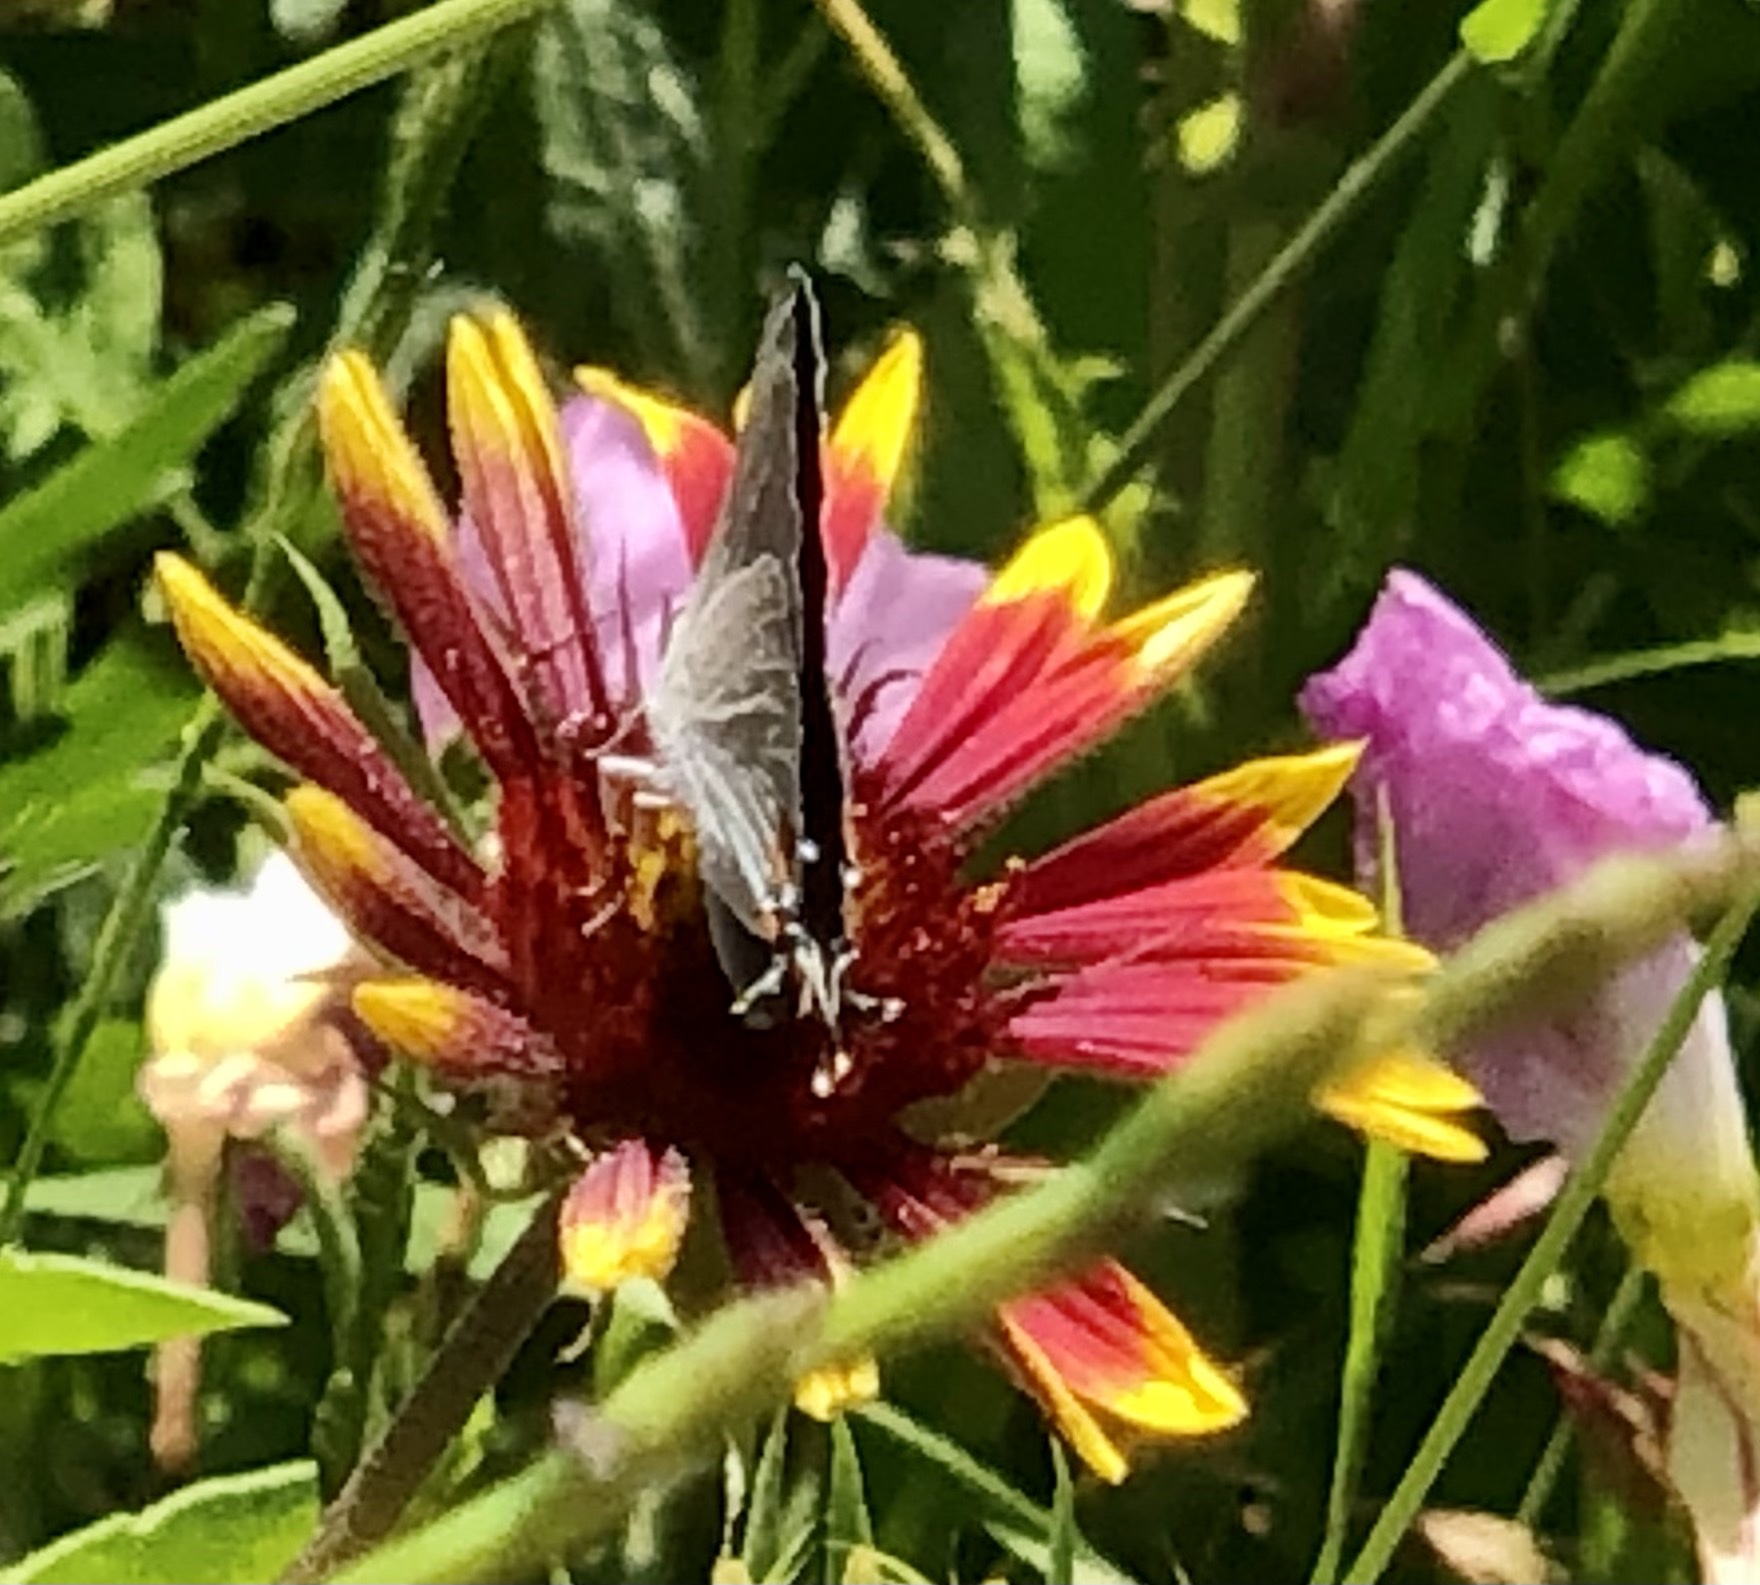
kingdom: Animalia
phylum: Arthropoda
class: Insecta
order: Lepidoptera
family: Lycaenidae
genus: Strymon
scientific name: Strymon melinus
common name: Gray hairstreak
